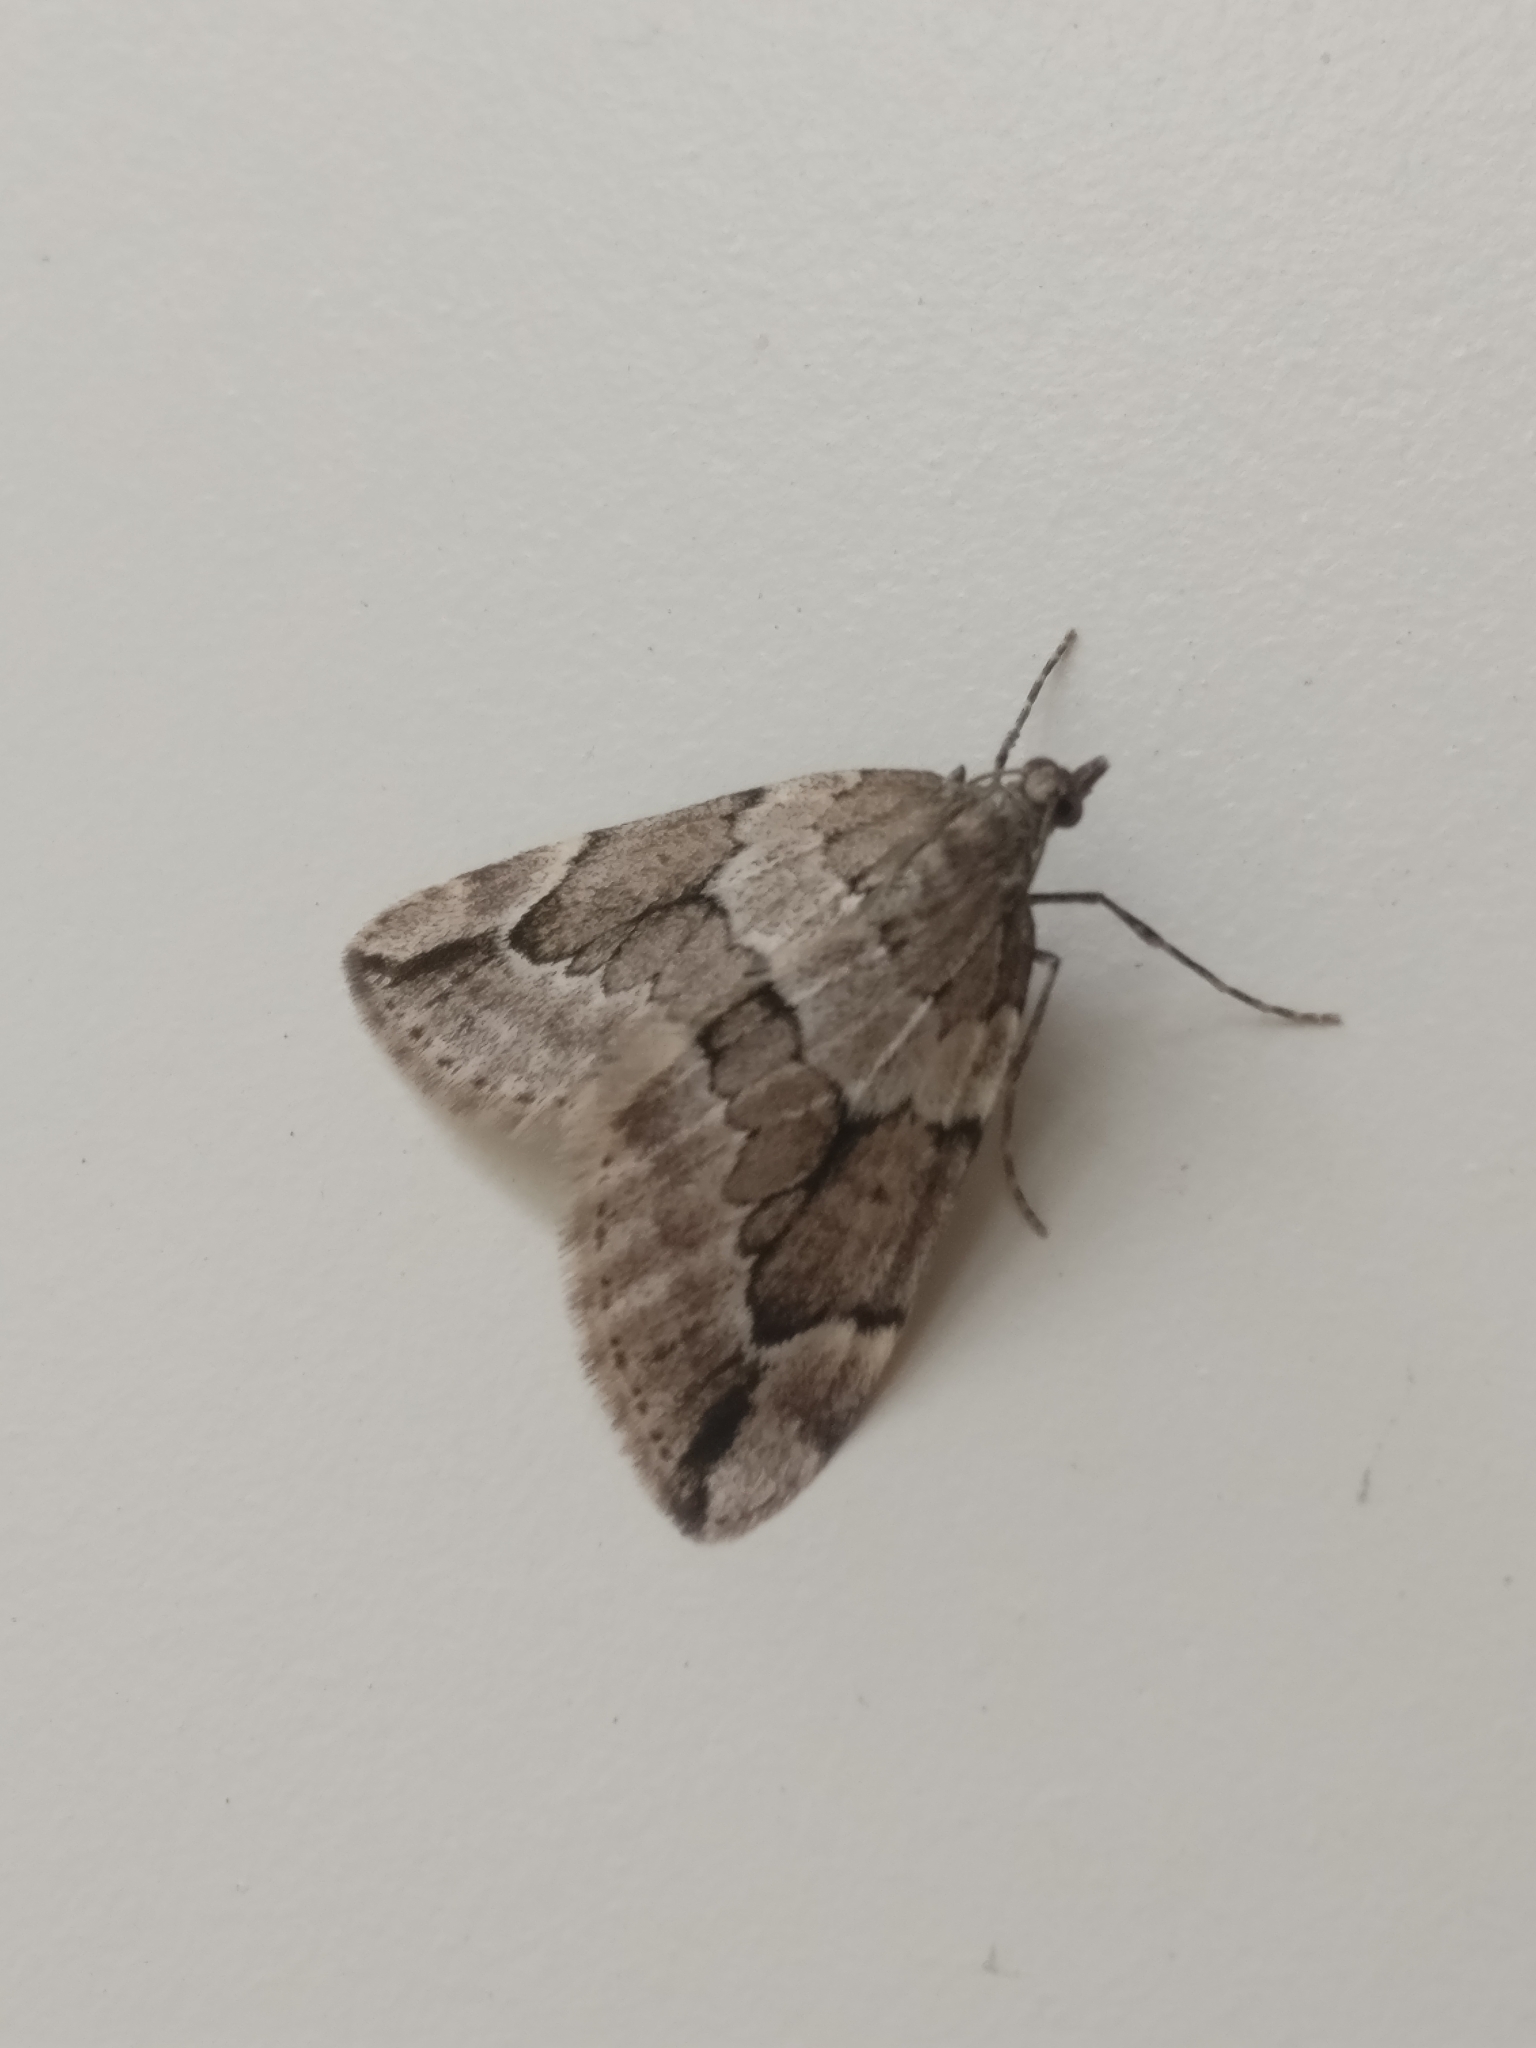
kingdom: Animalia
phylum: Arthropoda
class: Insecta
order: Lepidoptera
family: Geometridae
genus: Thera
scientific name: Thera juniperata
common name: Juniper carpet
